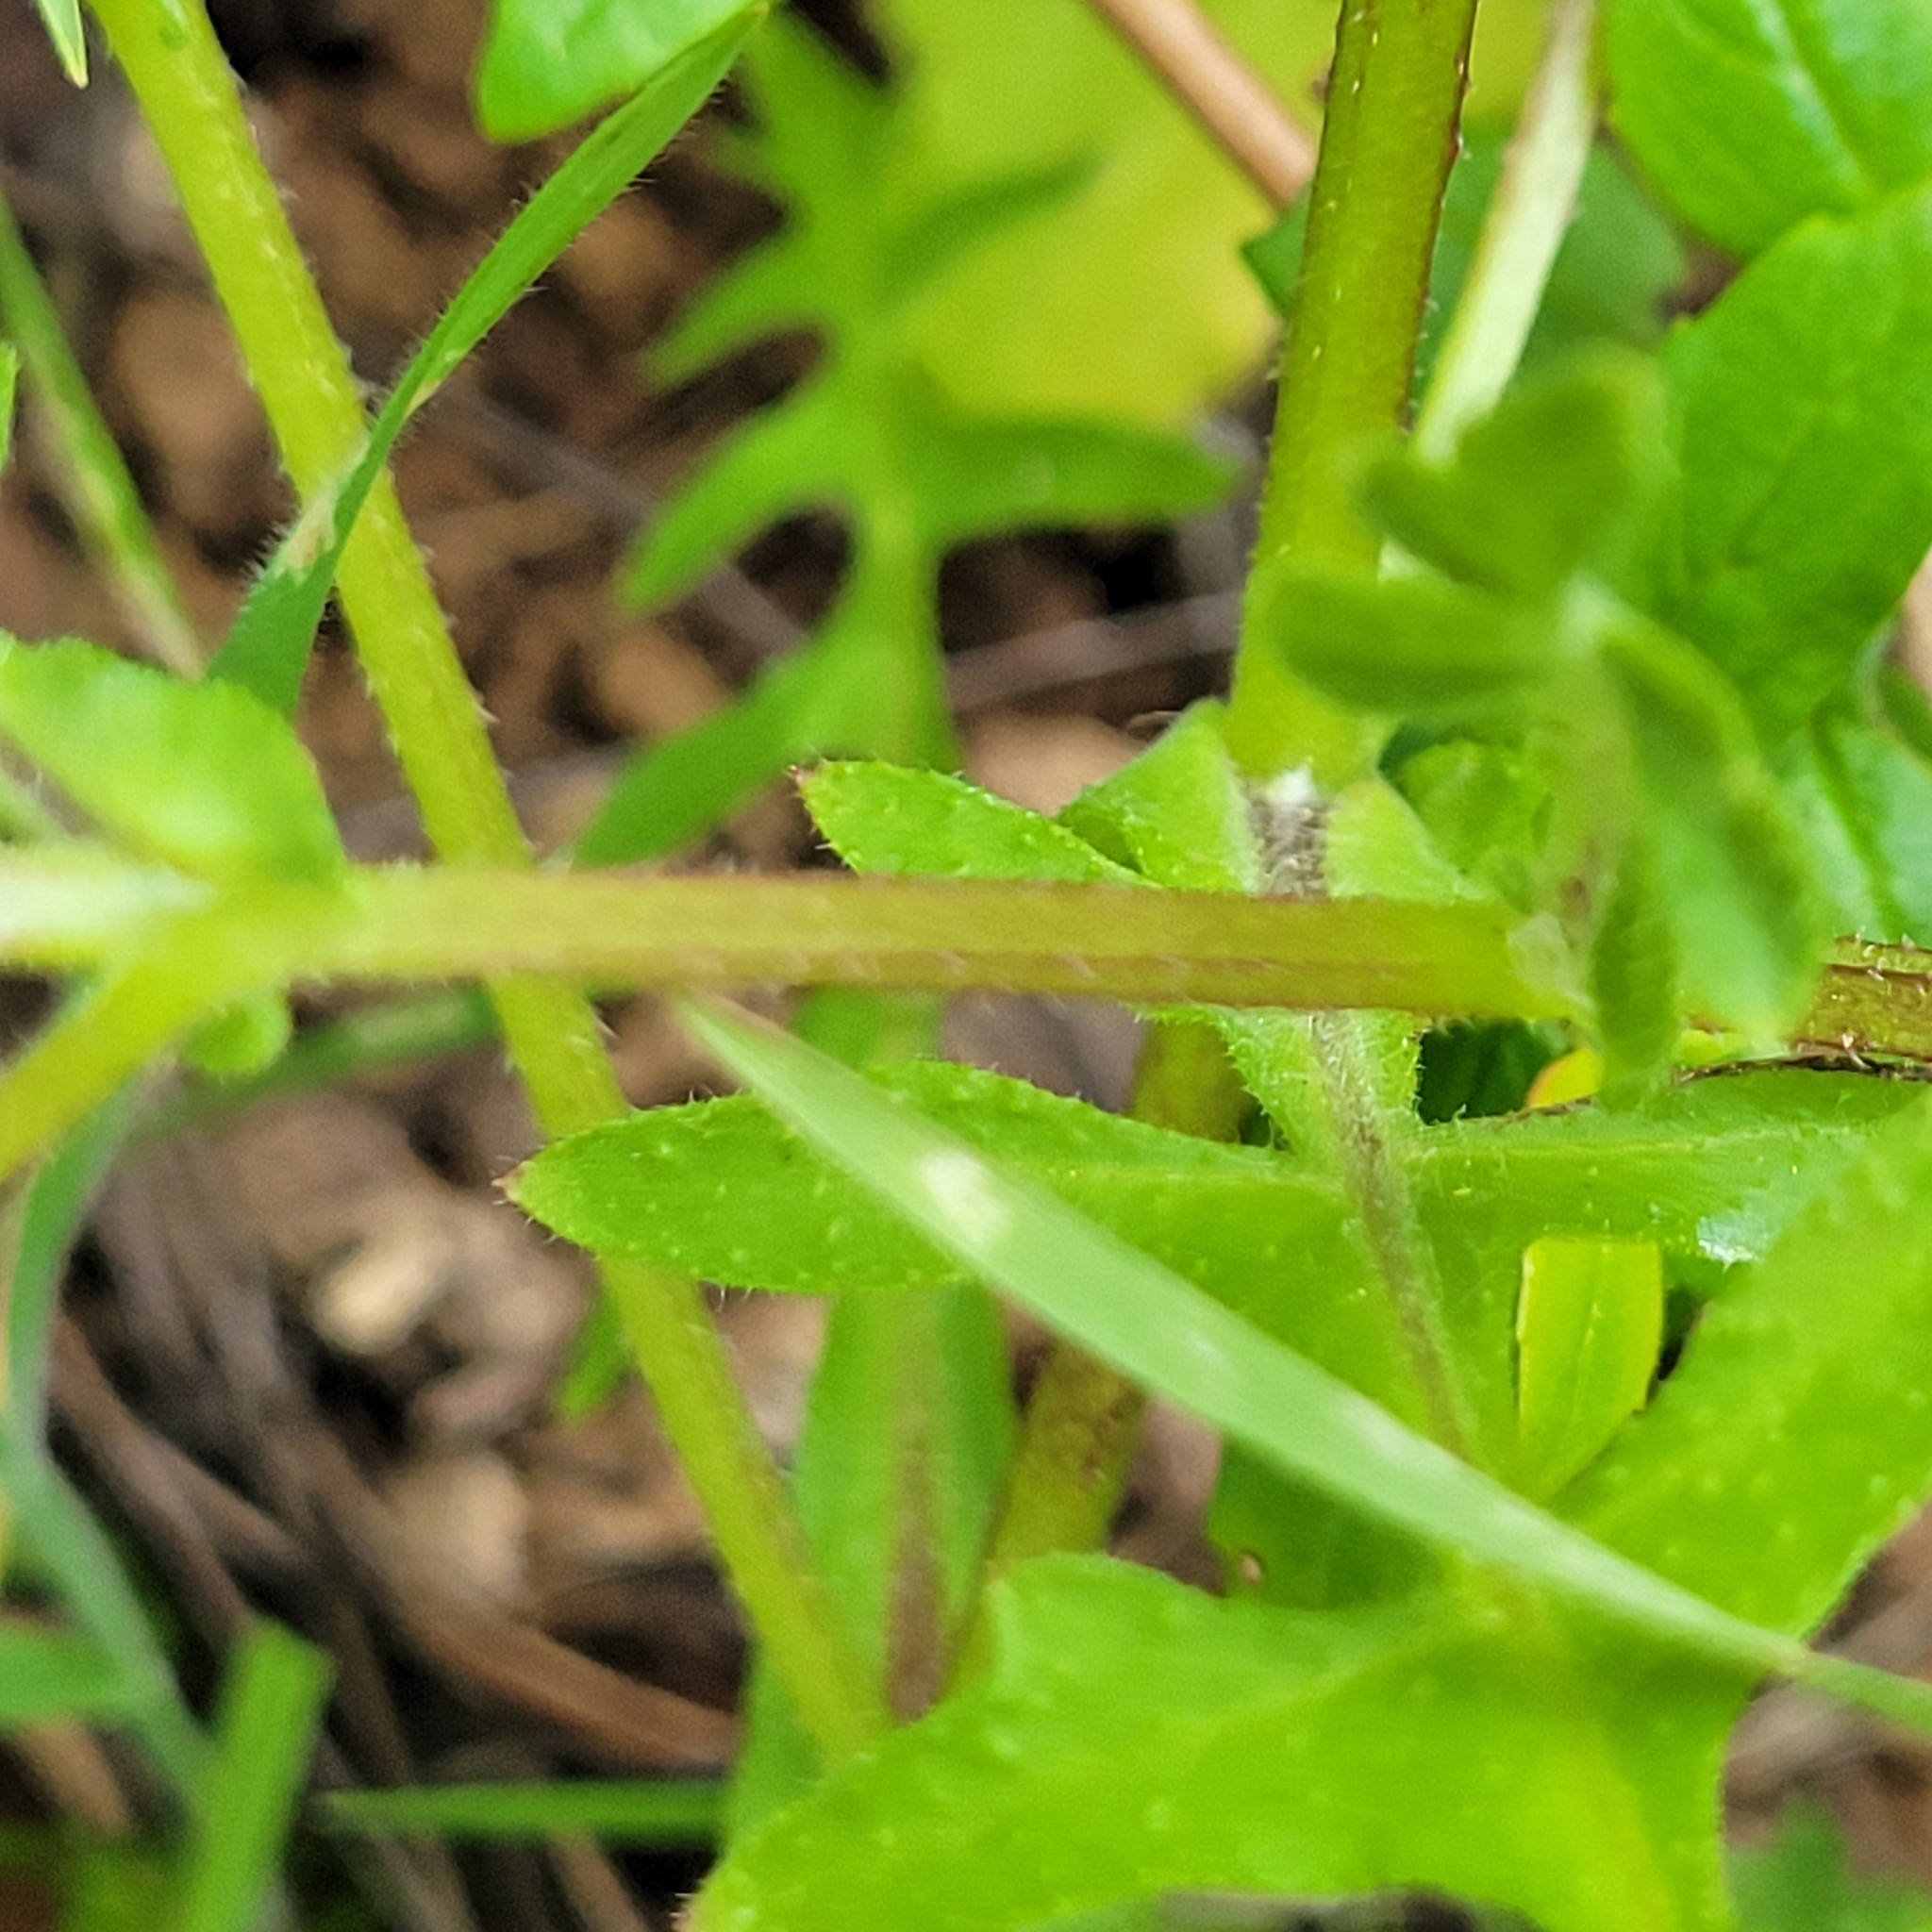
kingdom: Plantae
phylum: Tracheophyta
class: Magnoliopsida
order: Boraginales
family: Hydrophyllaceae
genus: Pholistoma
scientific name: Pholistoma auritum
